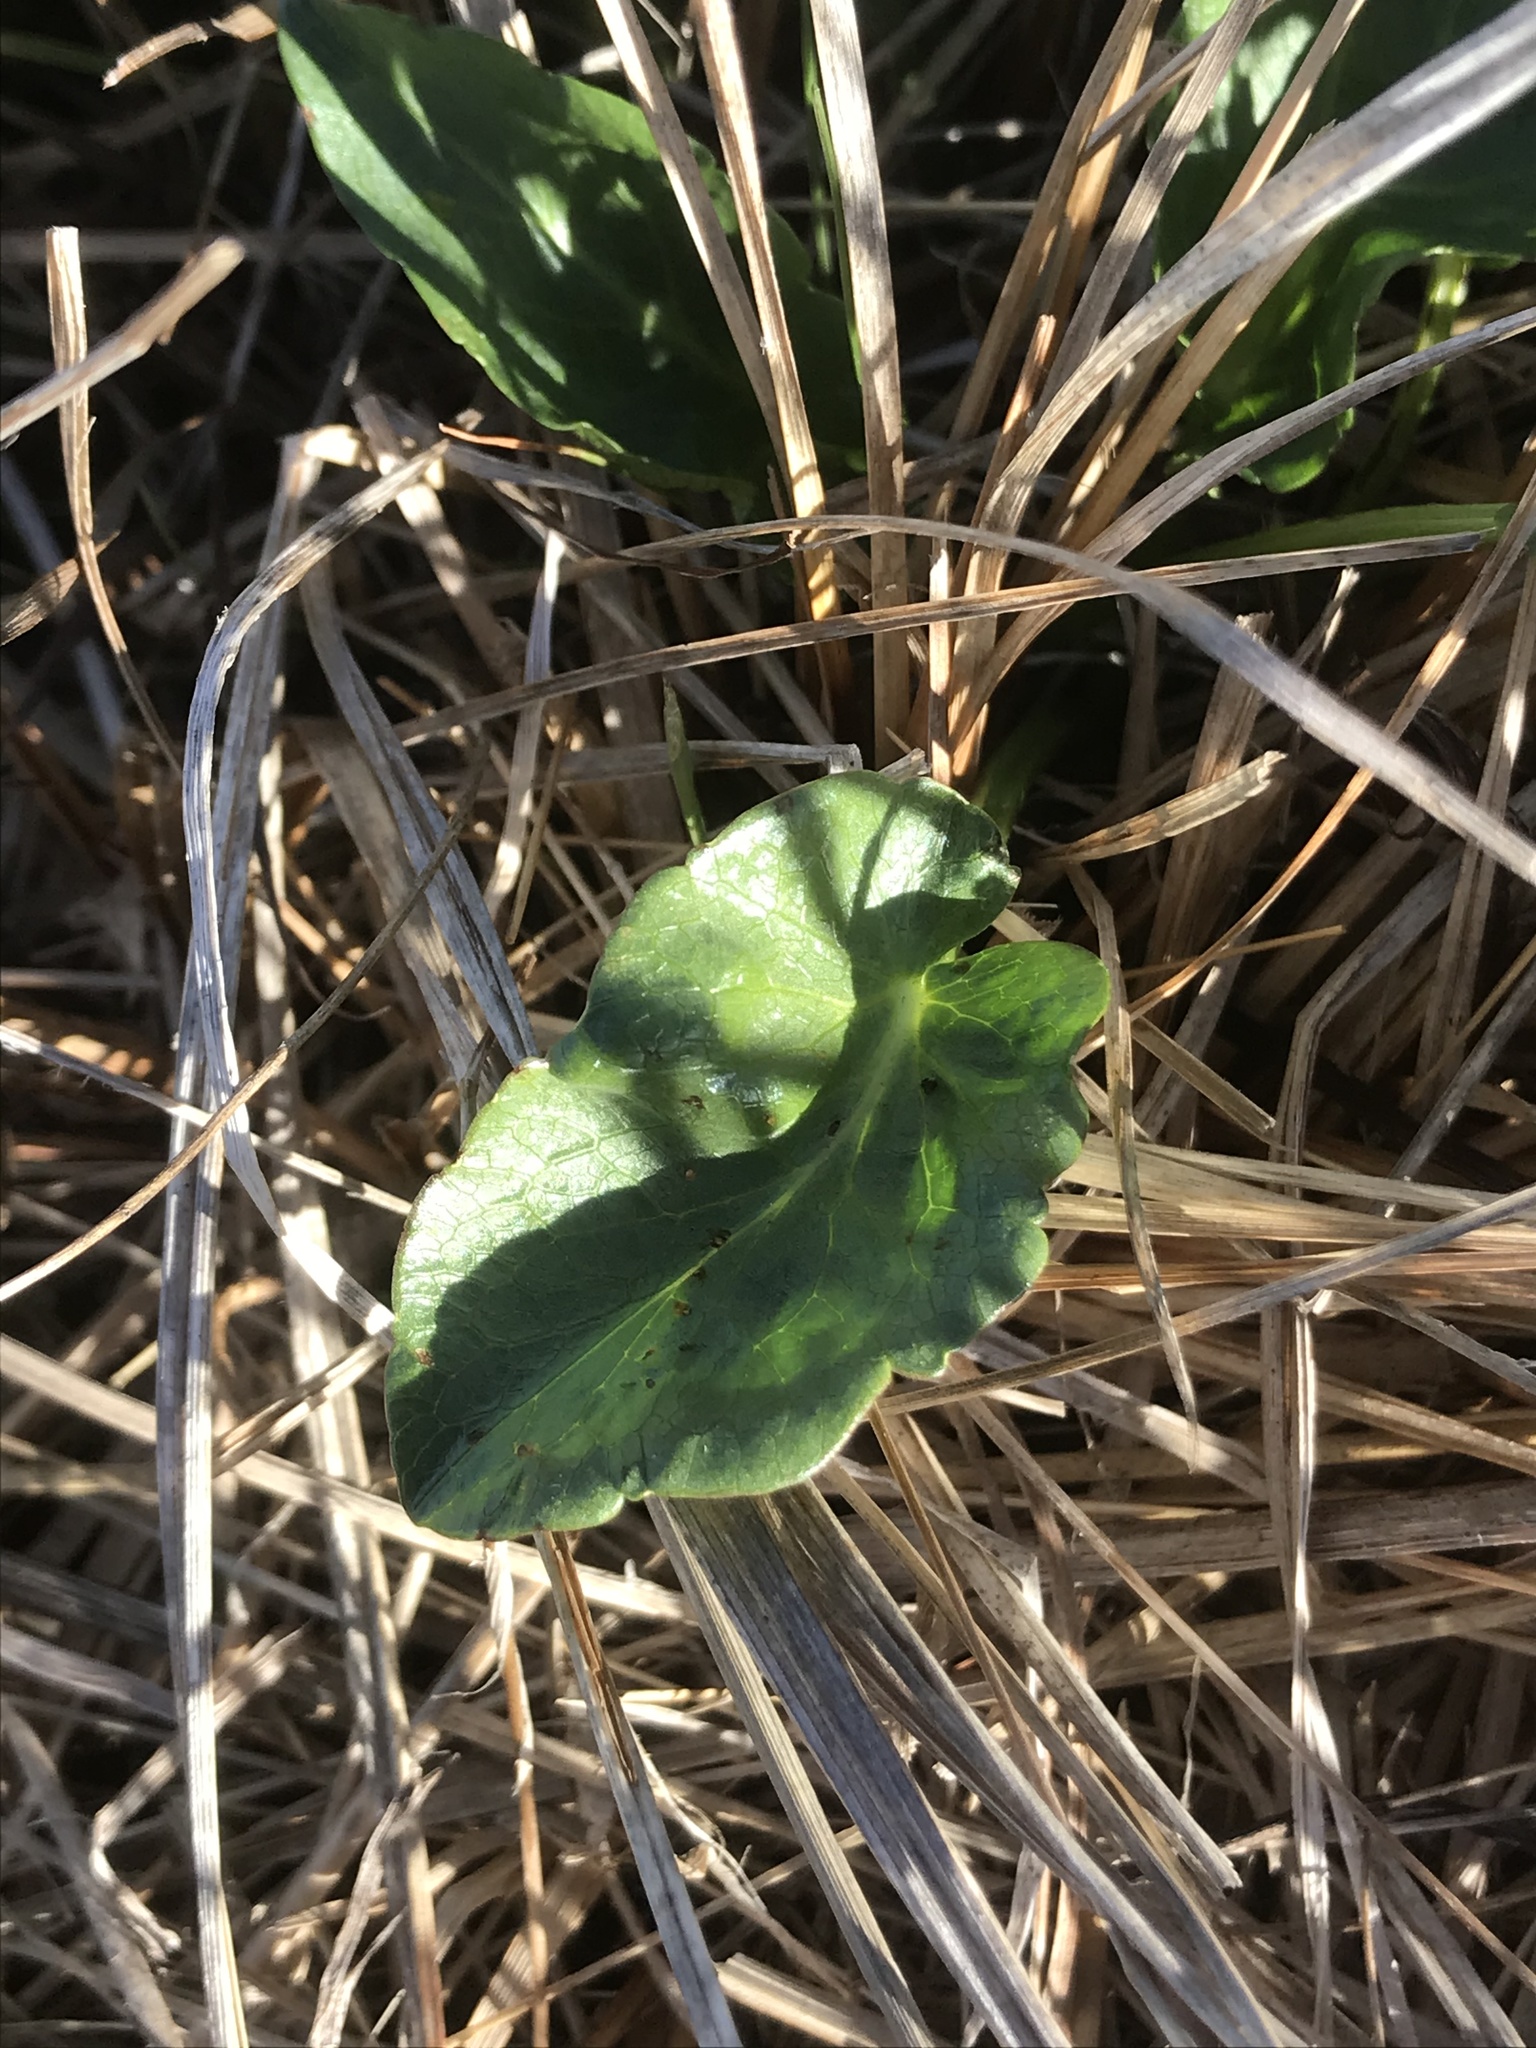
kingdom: Plantae
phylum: Tracheophyta
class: Magnoliopsida
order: Apiales
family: Apiaceae
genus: Sanicula
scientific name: Sanicula maritima
